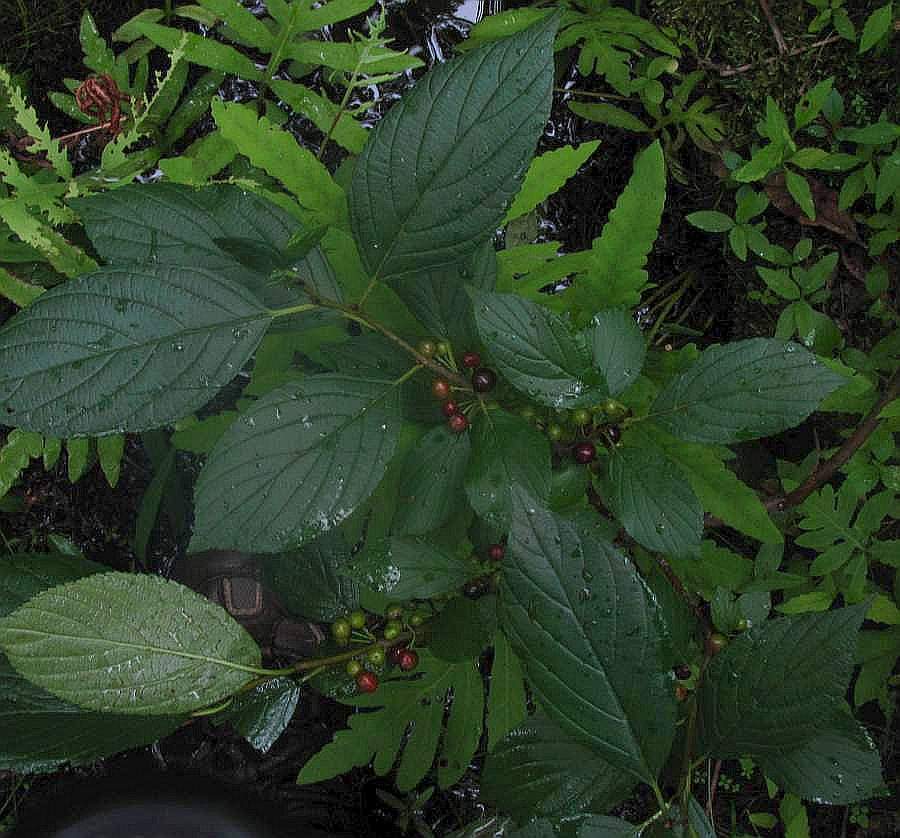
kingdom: Plantae
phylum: Tracheophyta
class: Magnoliopsida
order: Rosales
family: Rhamnaceae
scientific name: Rhamnaceae
